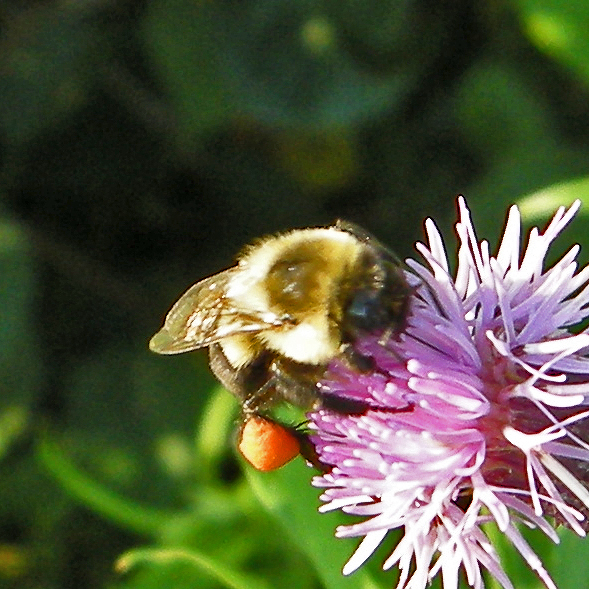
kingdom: Animalia
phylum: Arthropoda
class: Insecta
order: Hymenoptera
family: Apidae
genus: Bombus
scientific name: Bombus impatiens
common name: Common eastern bumble bee
